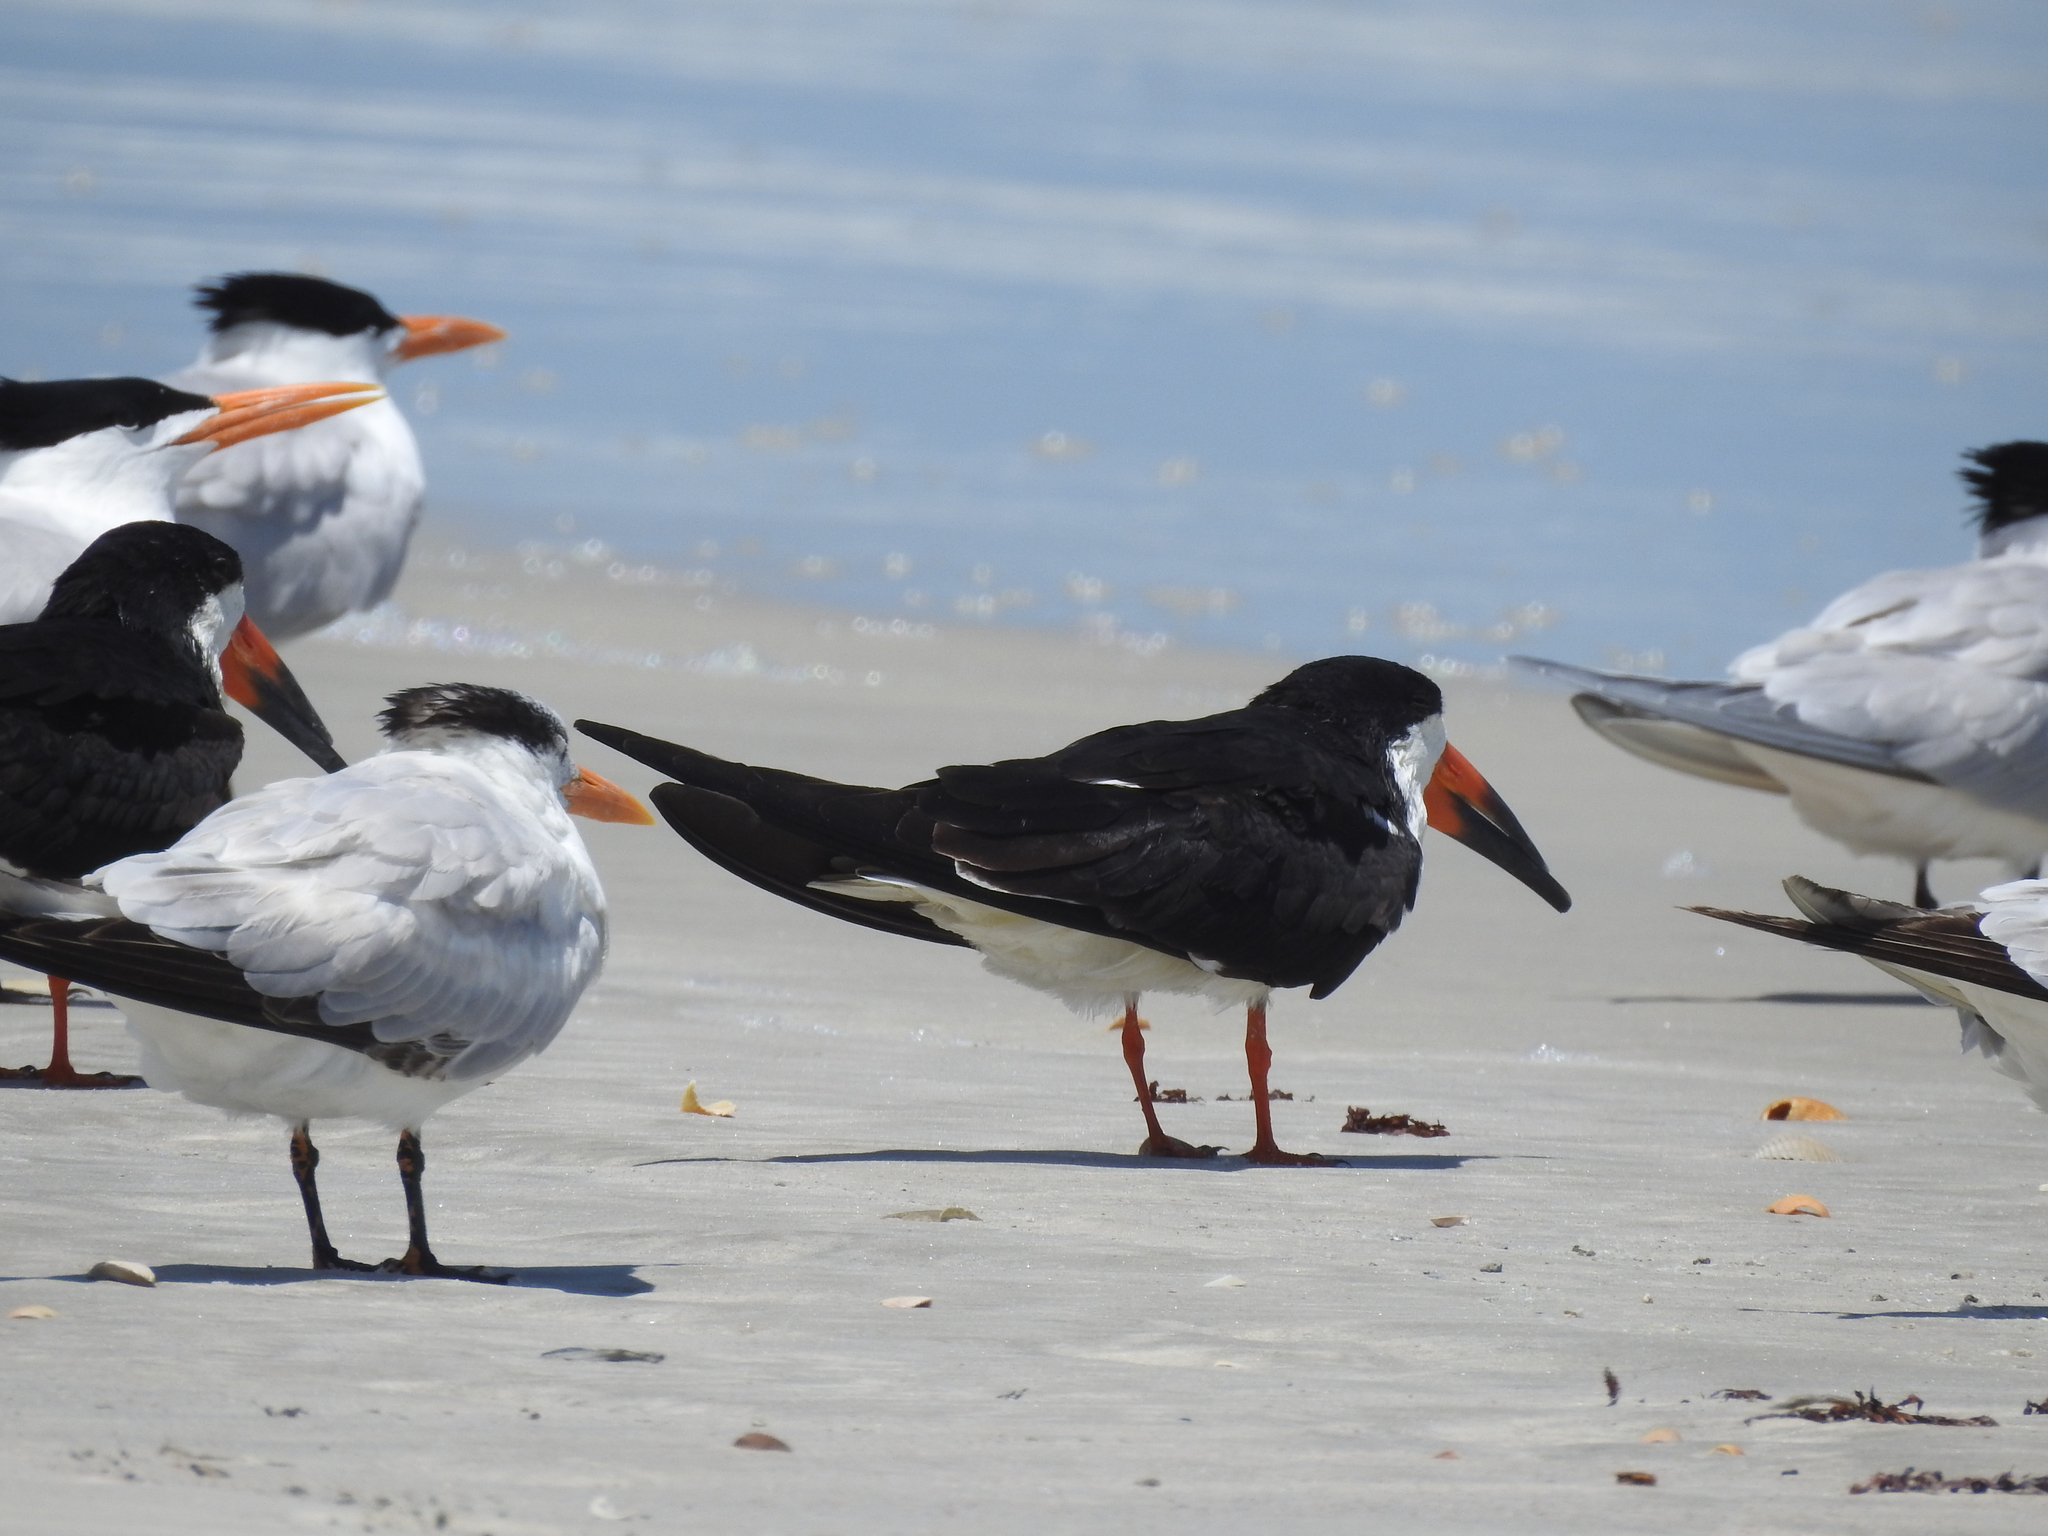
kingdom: Animalia
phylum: Chordata
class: Aves
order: Charadriiformes
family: Laridae
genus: Rynchops
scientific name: Rynchops niger
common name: Black skimmer
